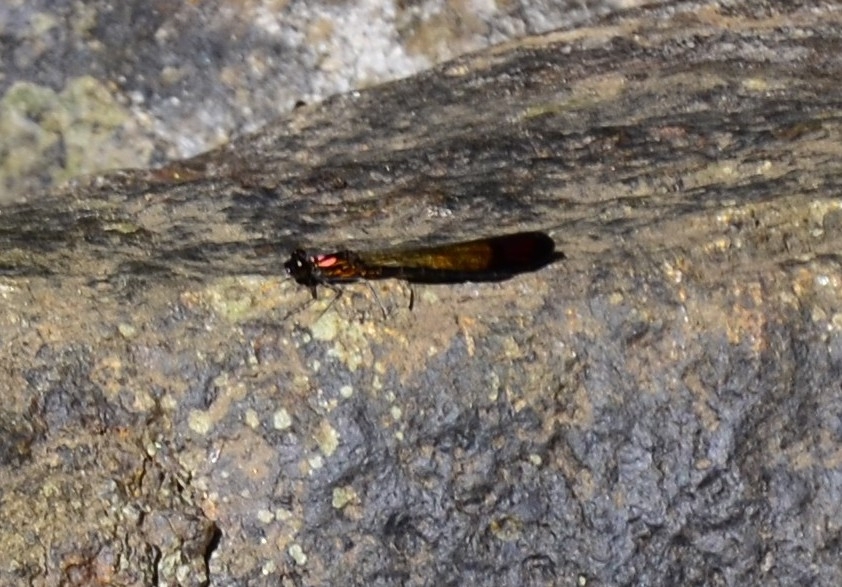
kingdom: Animalia
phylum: Arthropoda
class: Insecta
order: Odonata
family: Chlorocyphidae
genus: Heliocypha
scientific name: Heliocypha bisignata
